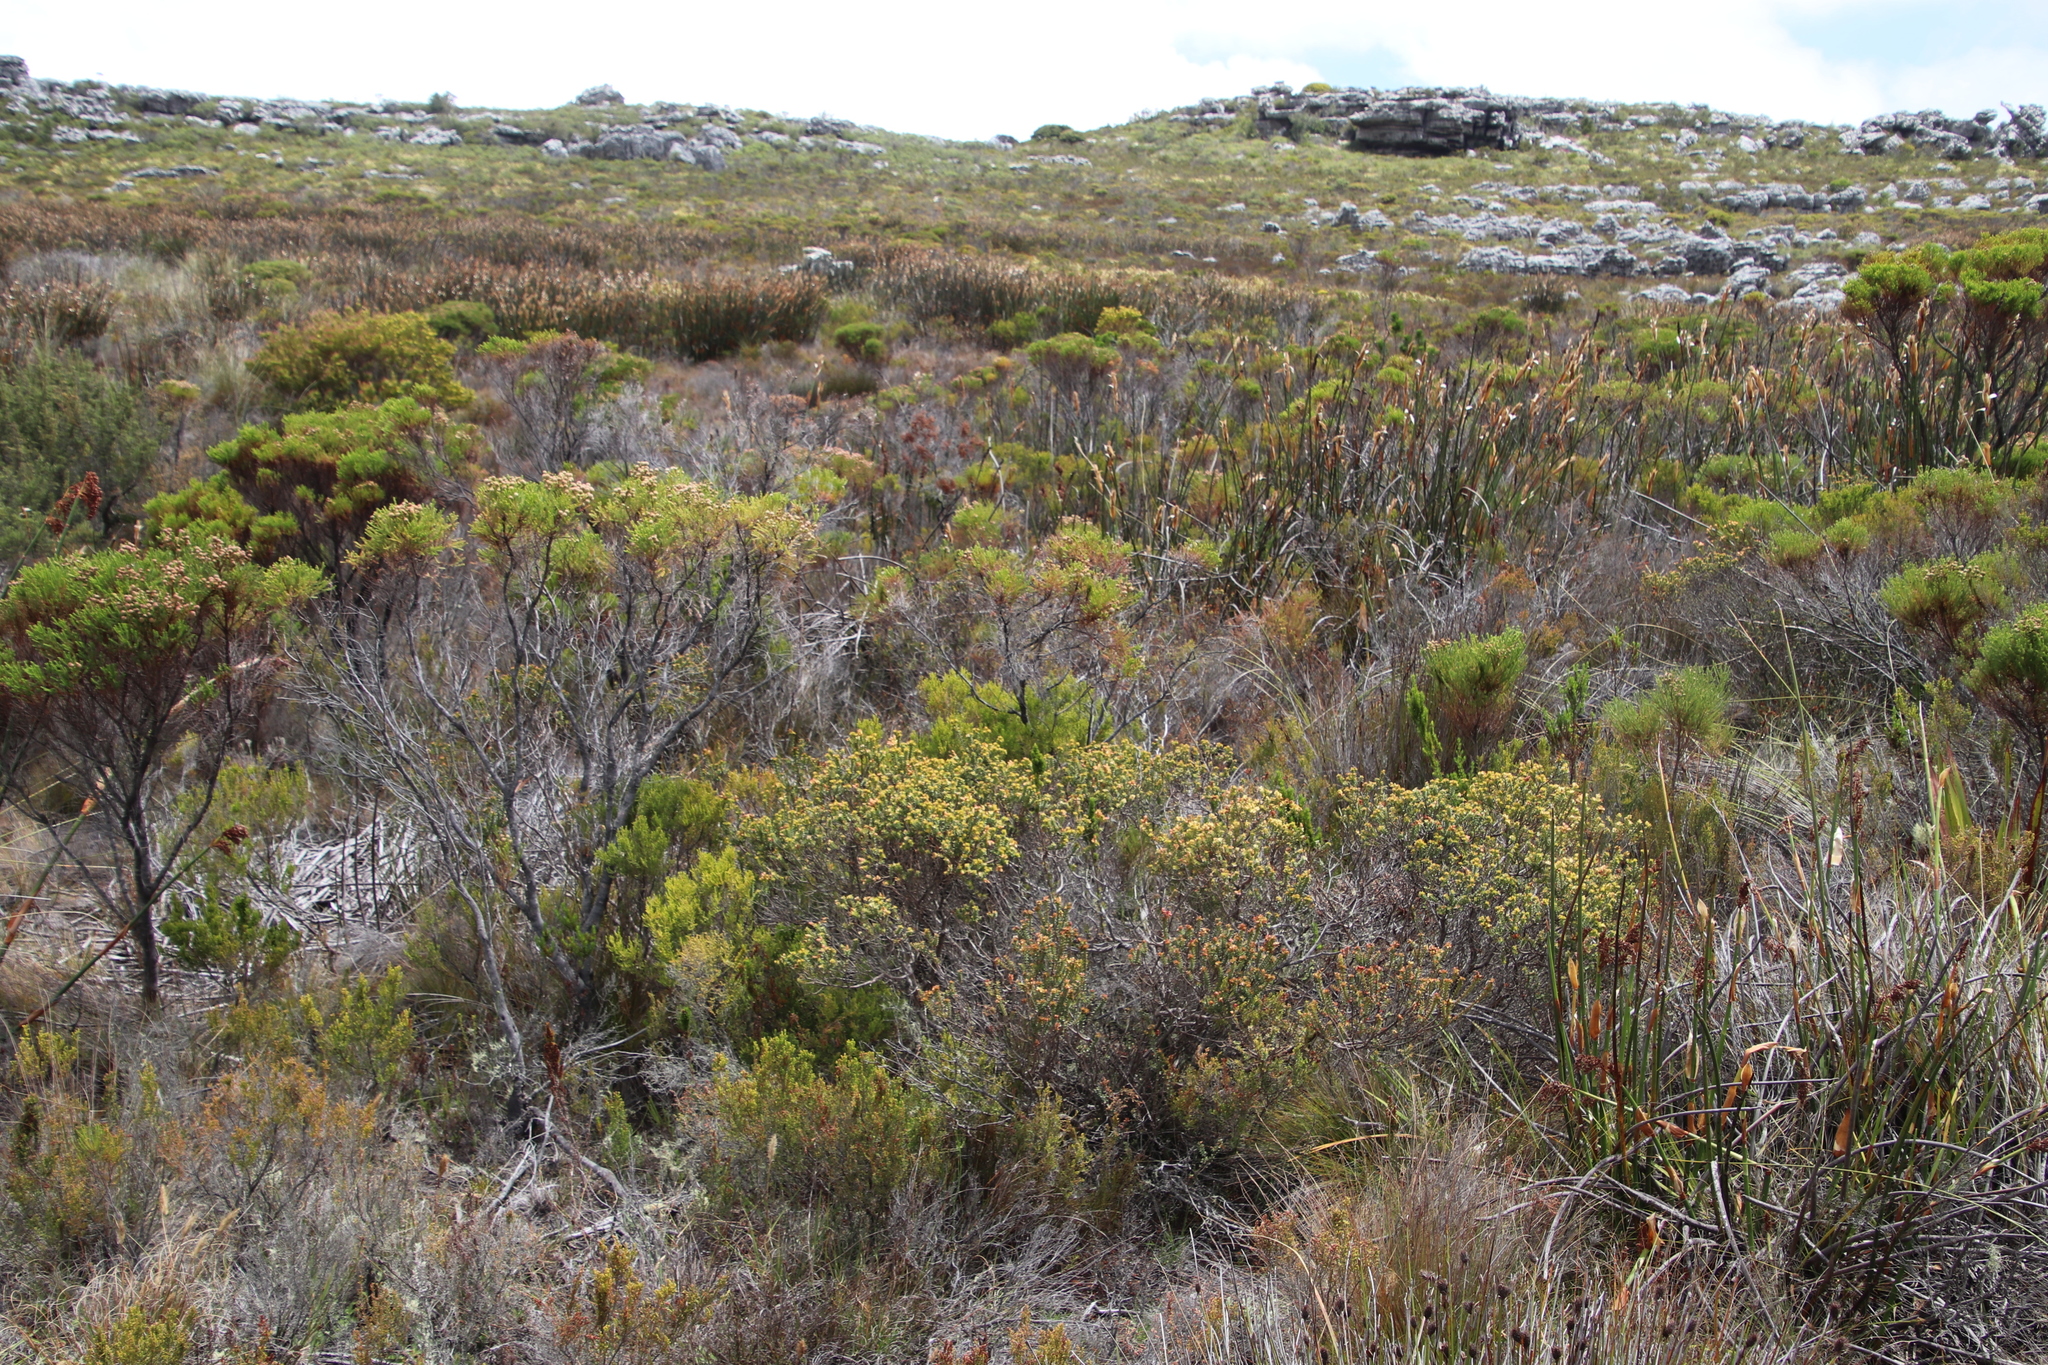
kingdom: Plantae
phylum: Tracheophyta
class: Magnoliopsida
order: Myrtales
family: Penaeaceae
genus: Penaea
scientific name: Penaea mucronata
